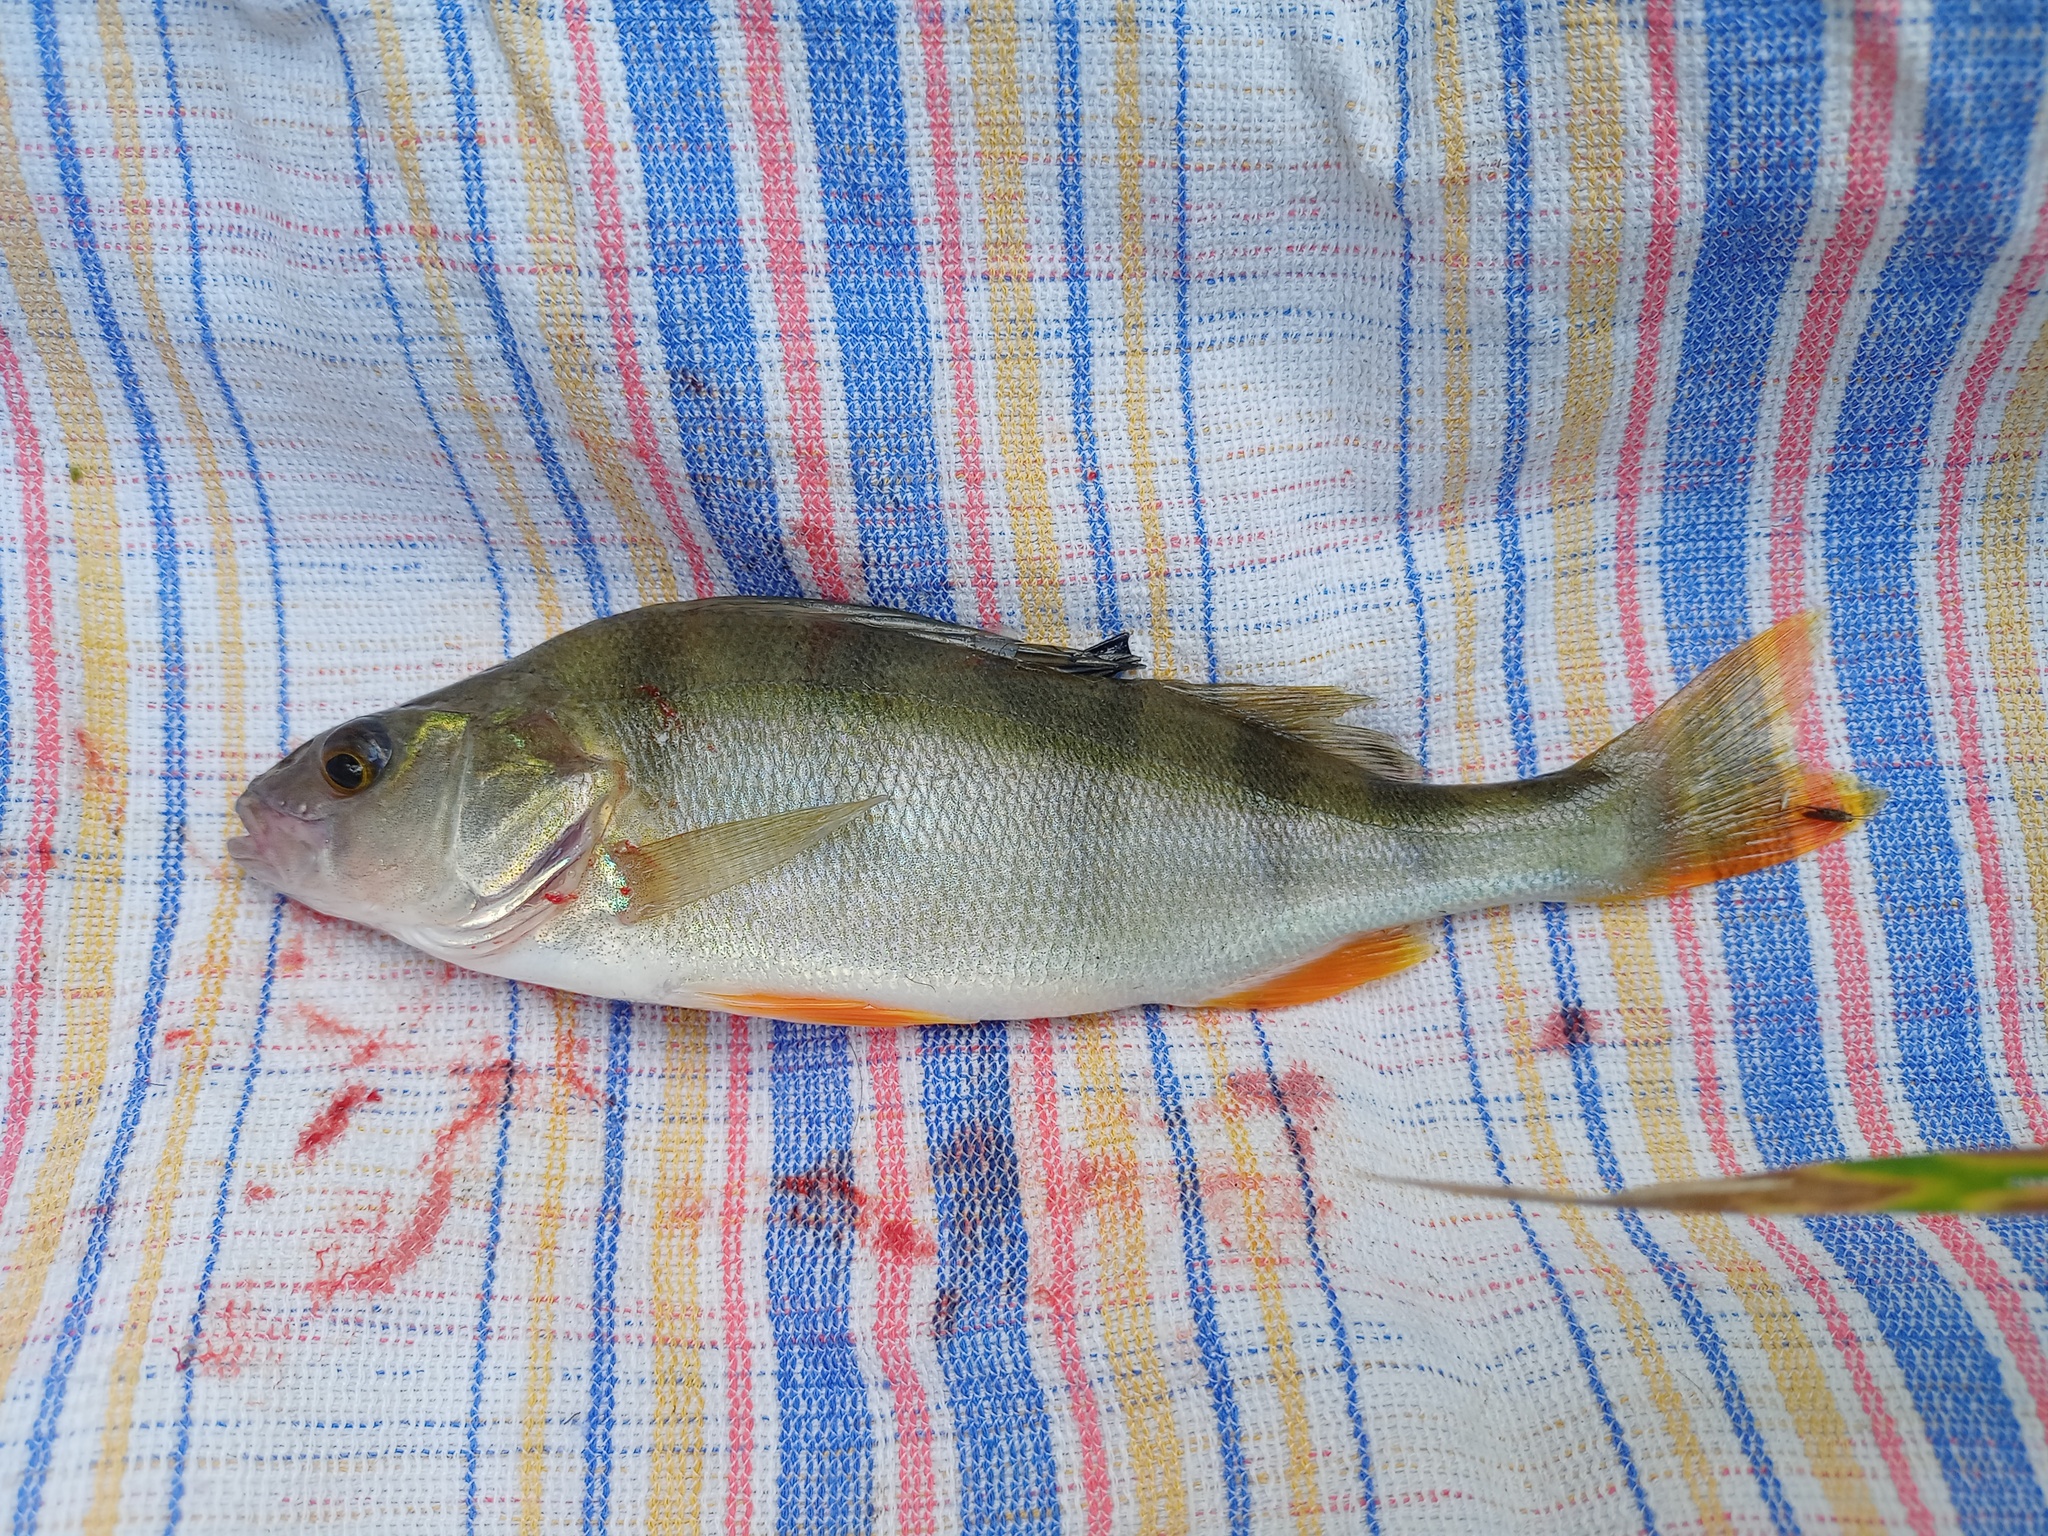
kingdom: Animalia
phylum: Chordata
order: Perciformes
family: Percidae
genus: Perca
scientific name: Perca fluviatilis
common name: Perch
